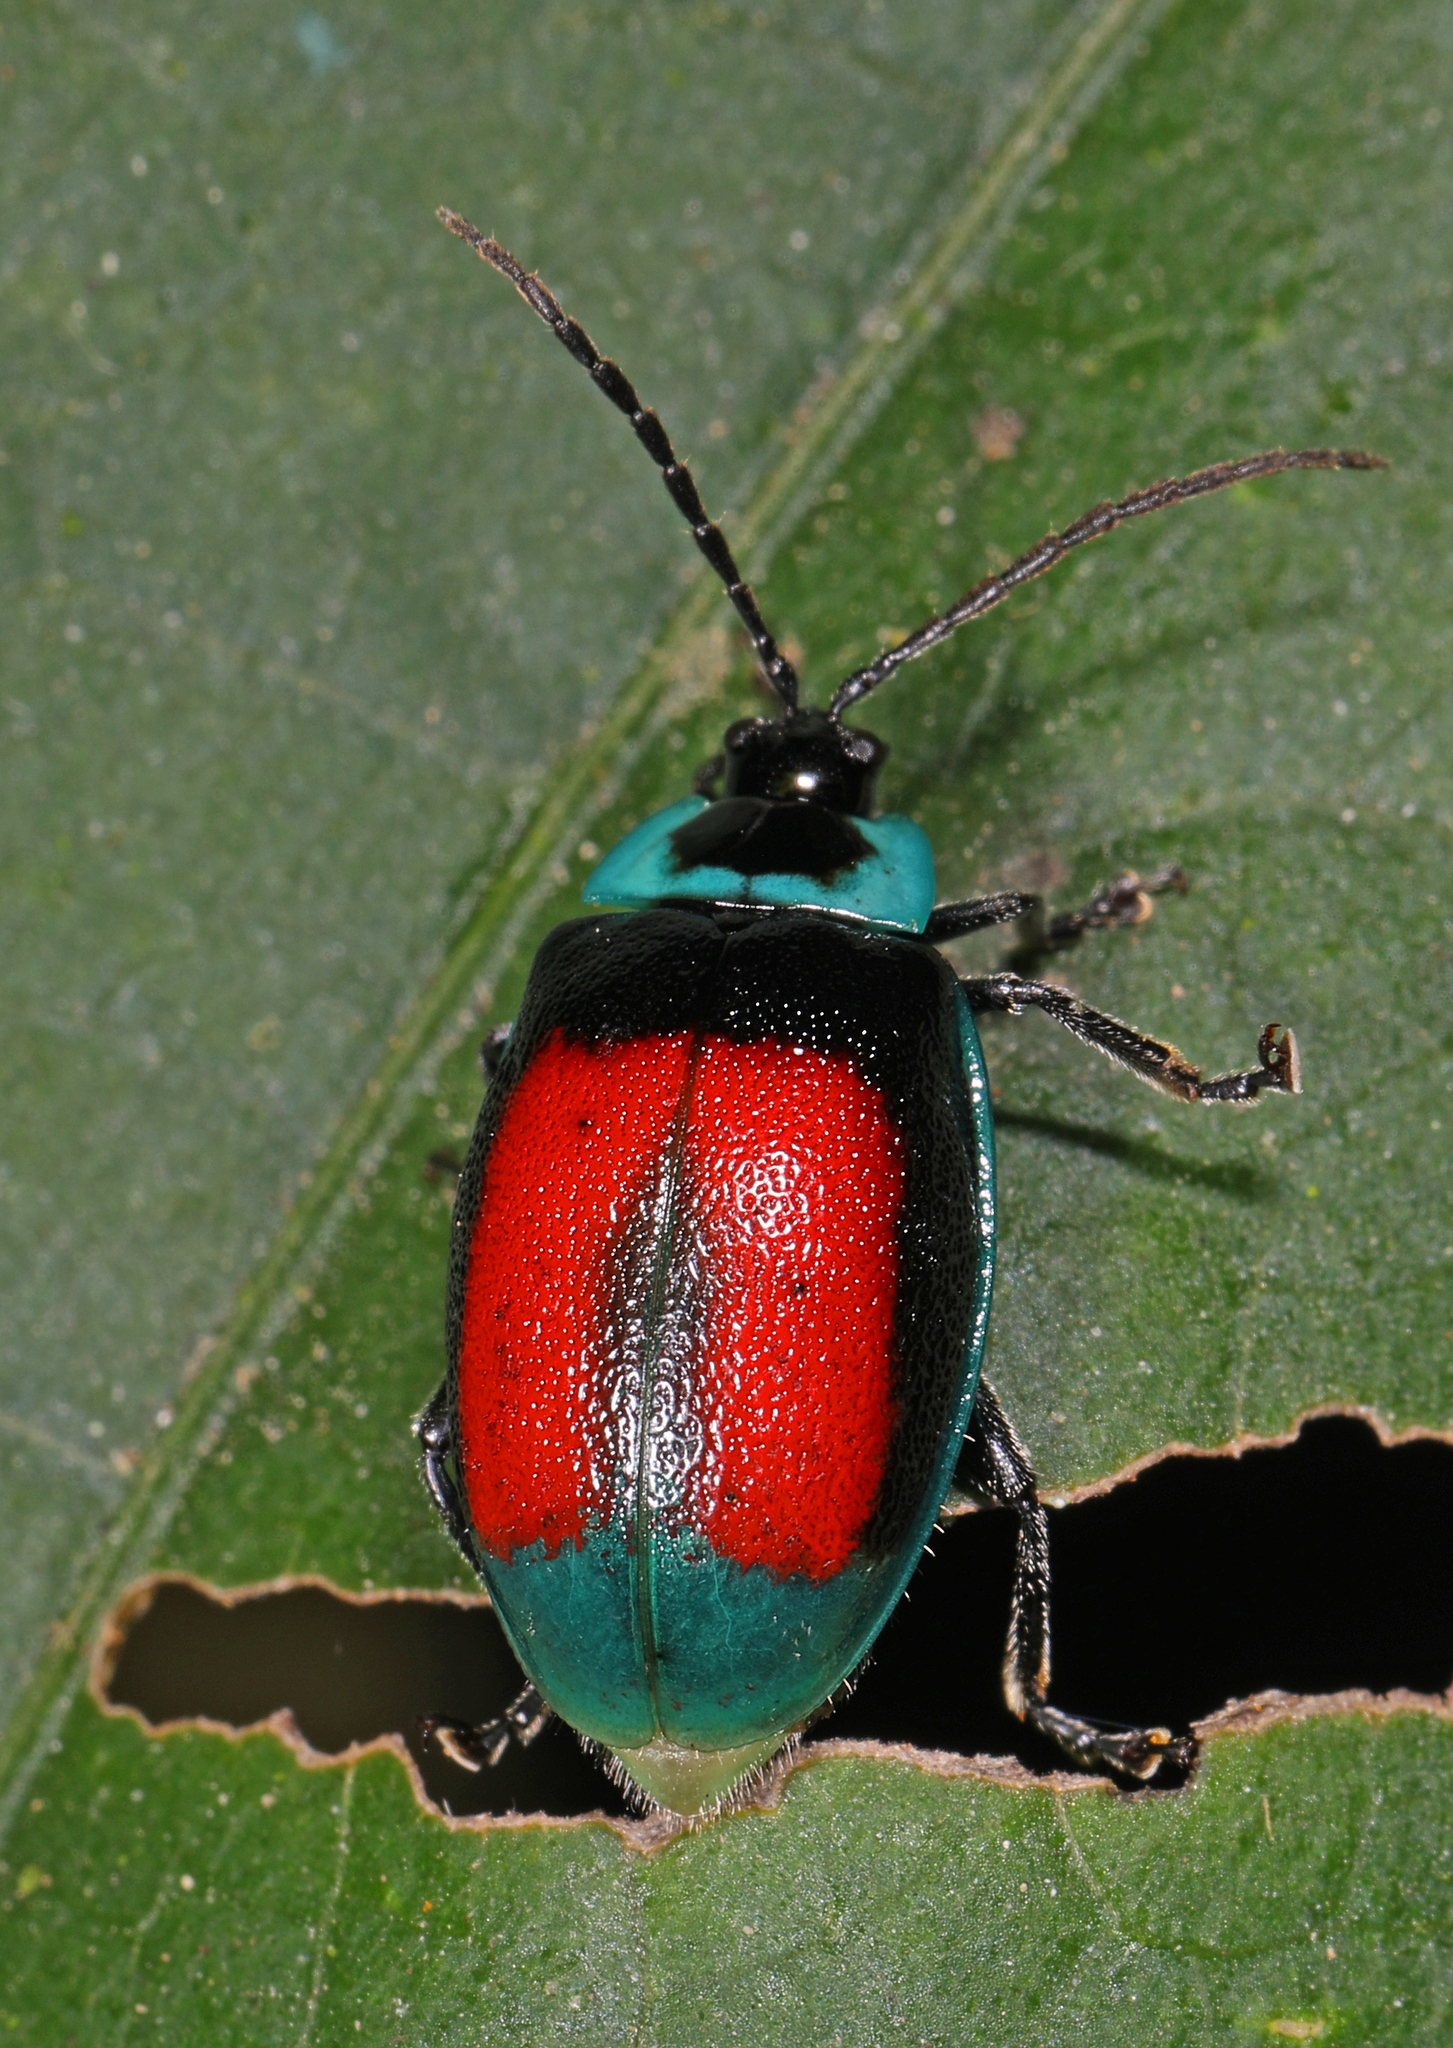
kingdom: Animalia
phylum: Arthropoda
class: Insecta
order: Coleoptera
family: Chrysomelidae
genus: Aspicela
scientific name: Aspicela
